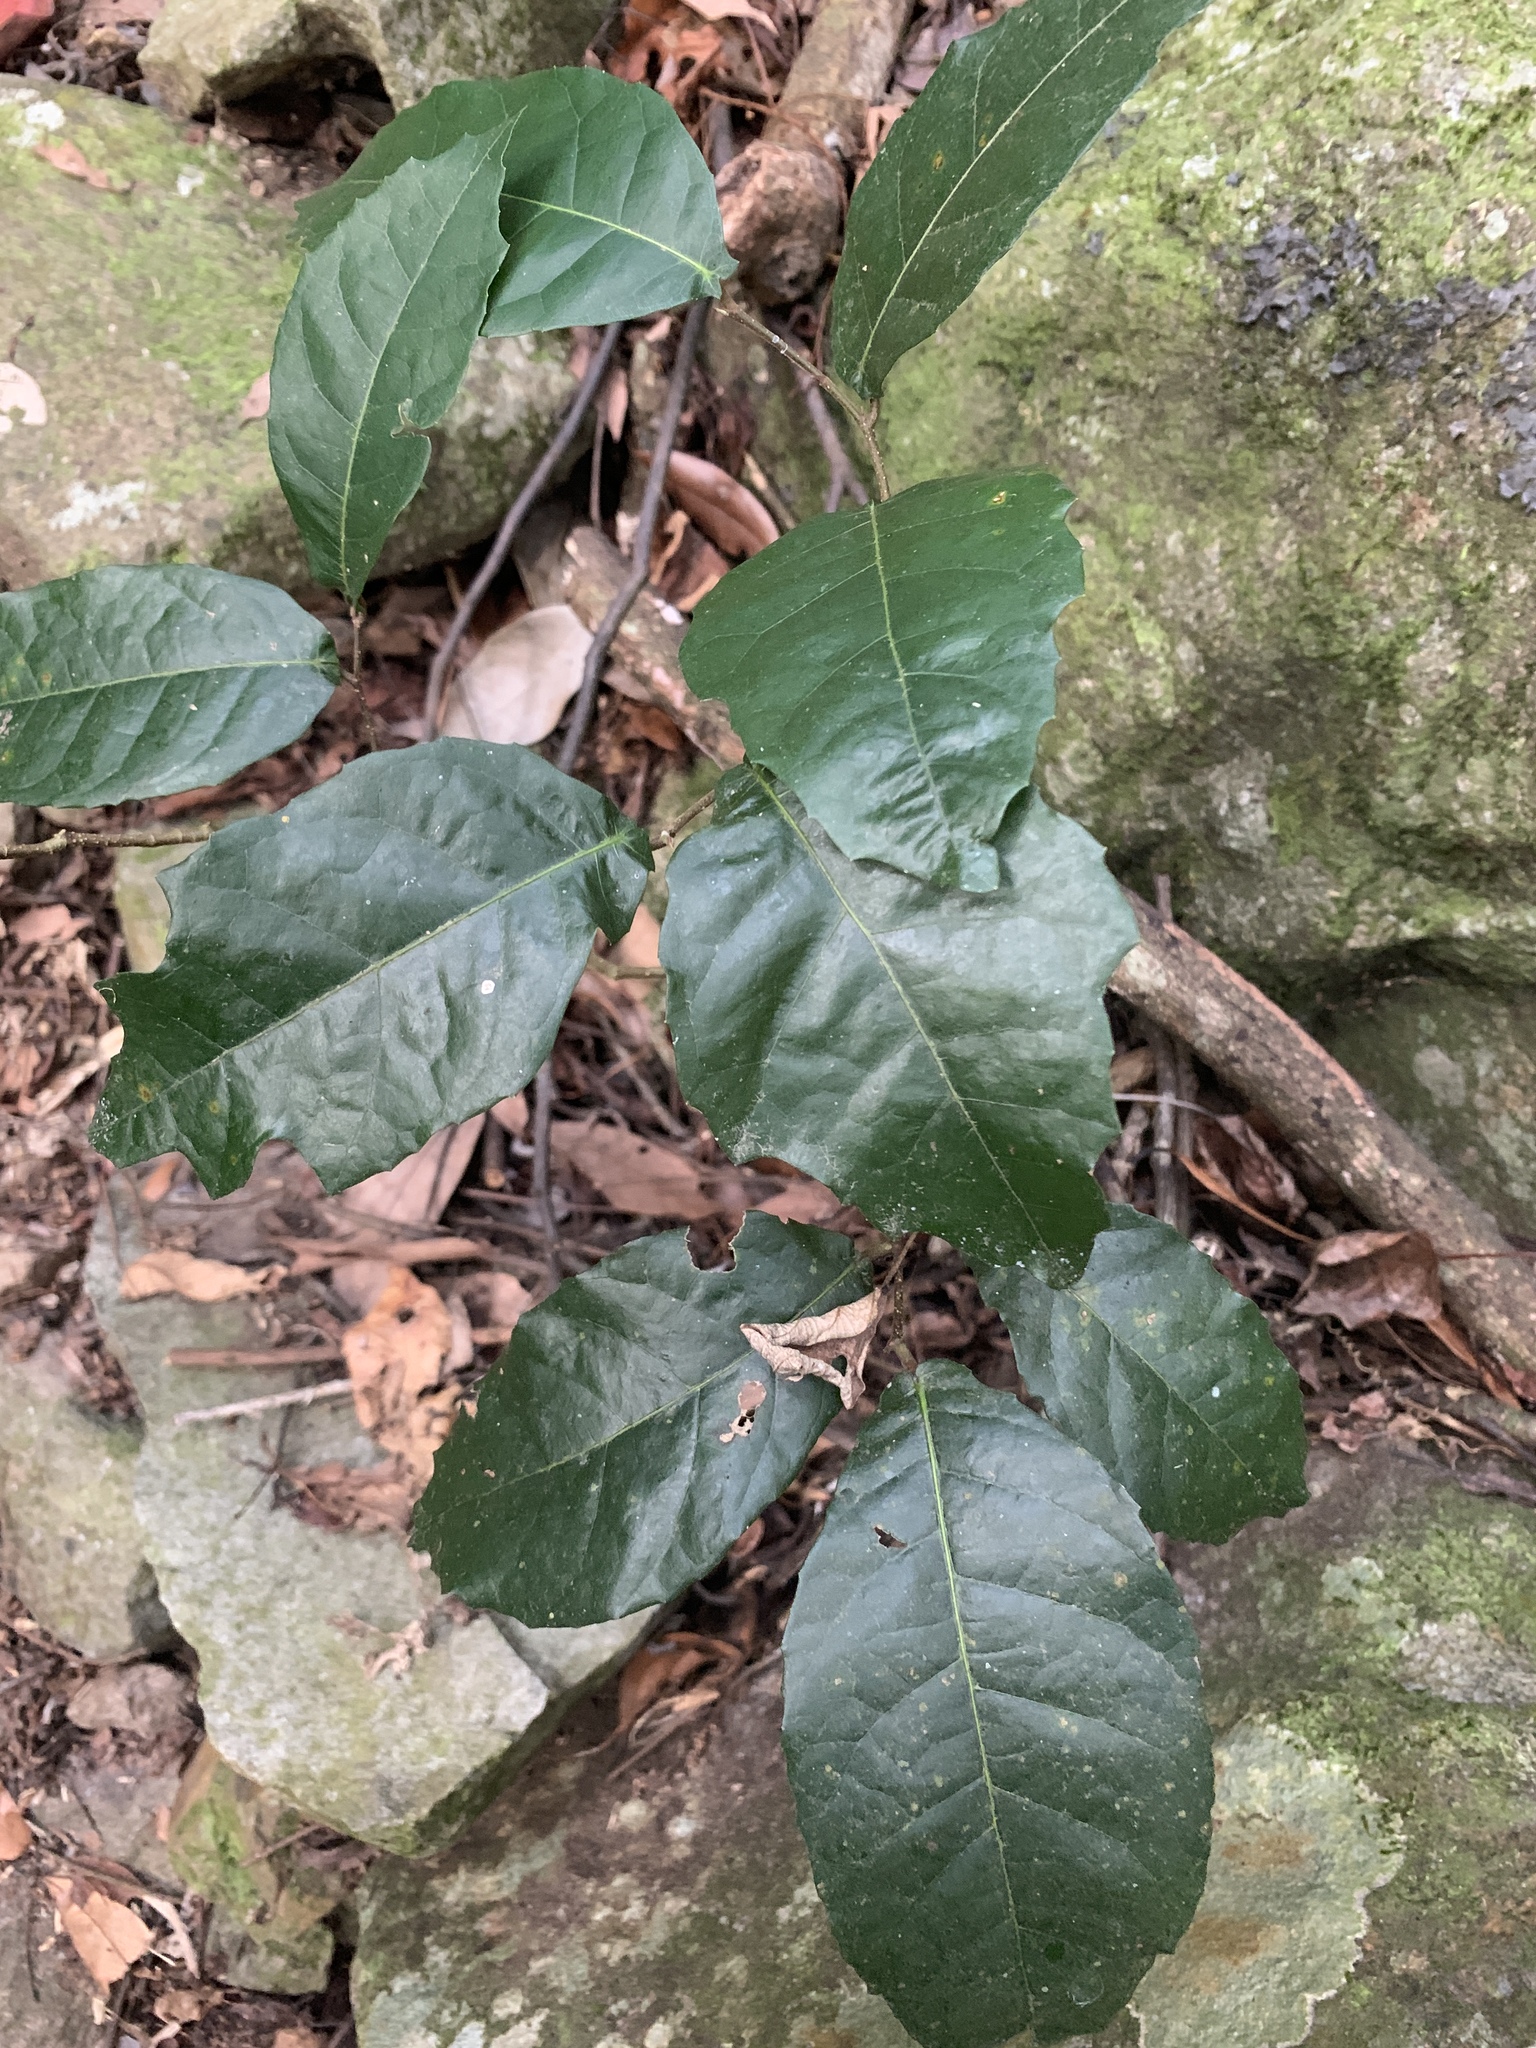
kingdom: Plantae
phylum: Tracheophyta
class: Magnoliopsida
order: Rosales
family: Moraceae
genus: Malaisia
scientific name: Malaisia scandens
